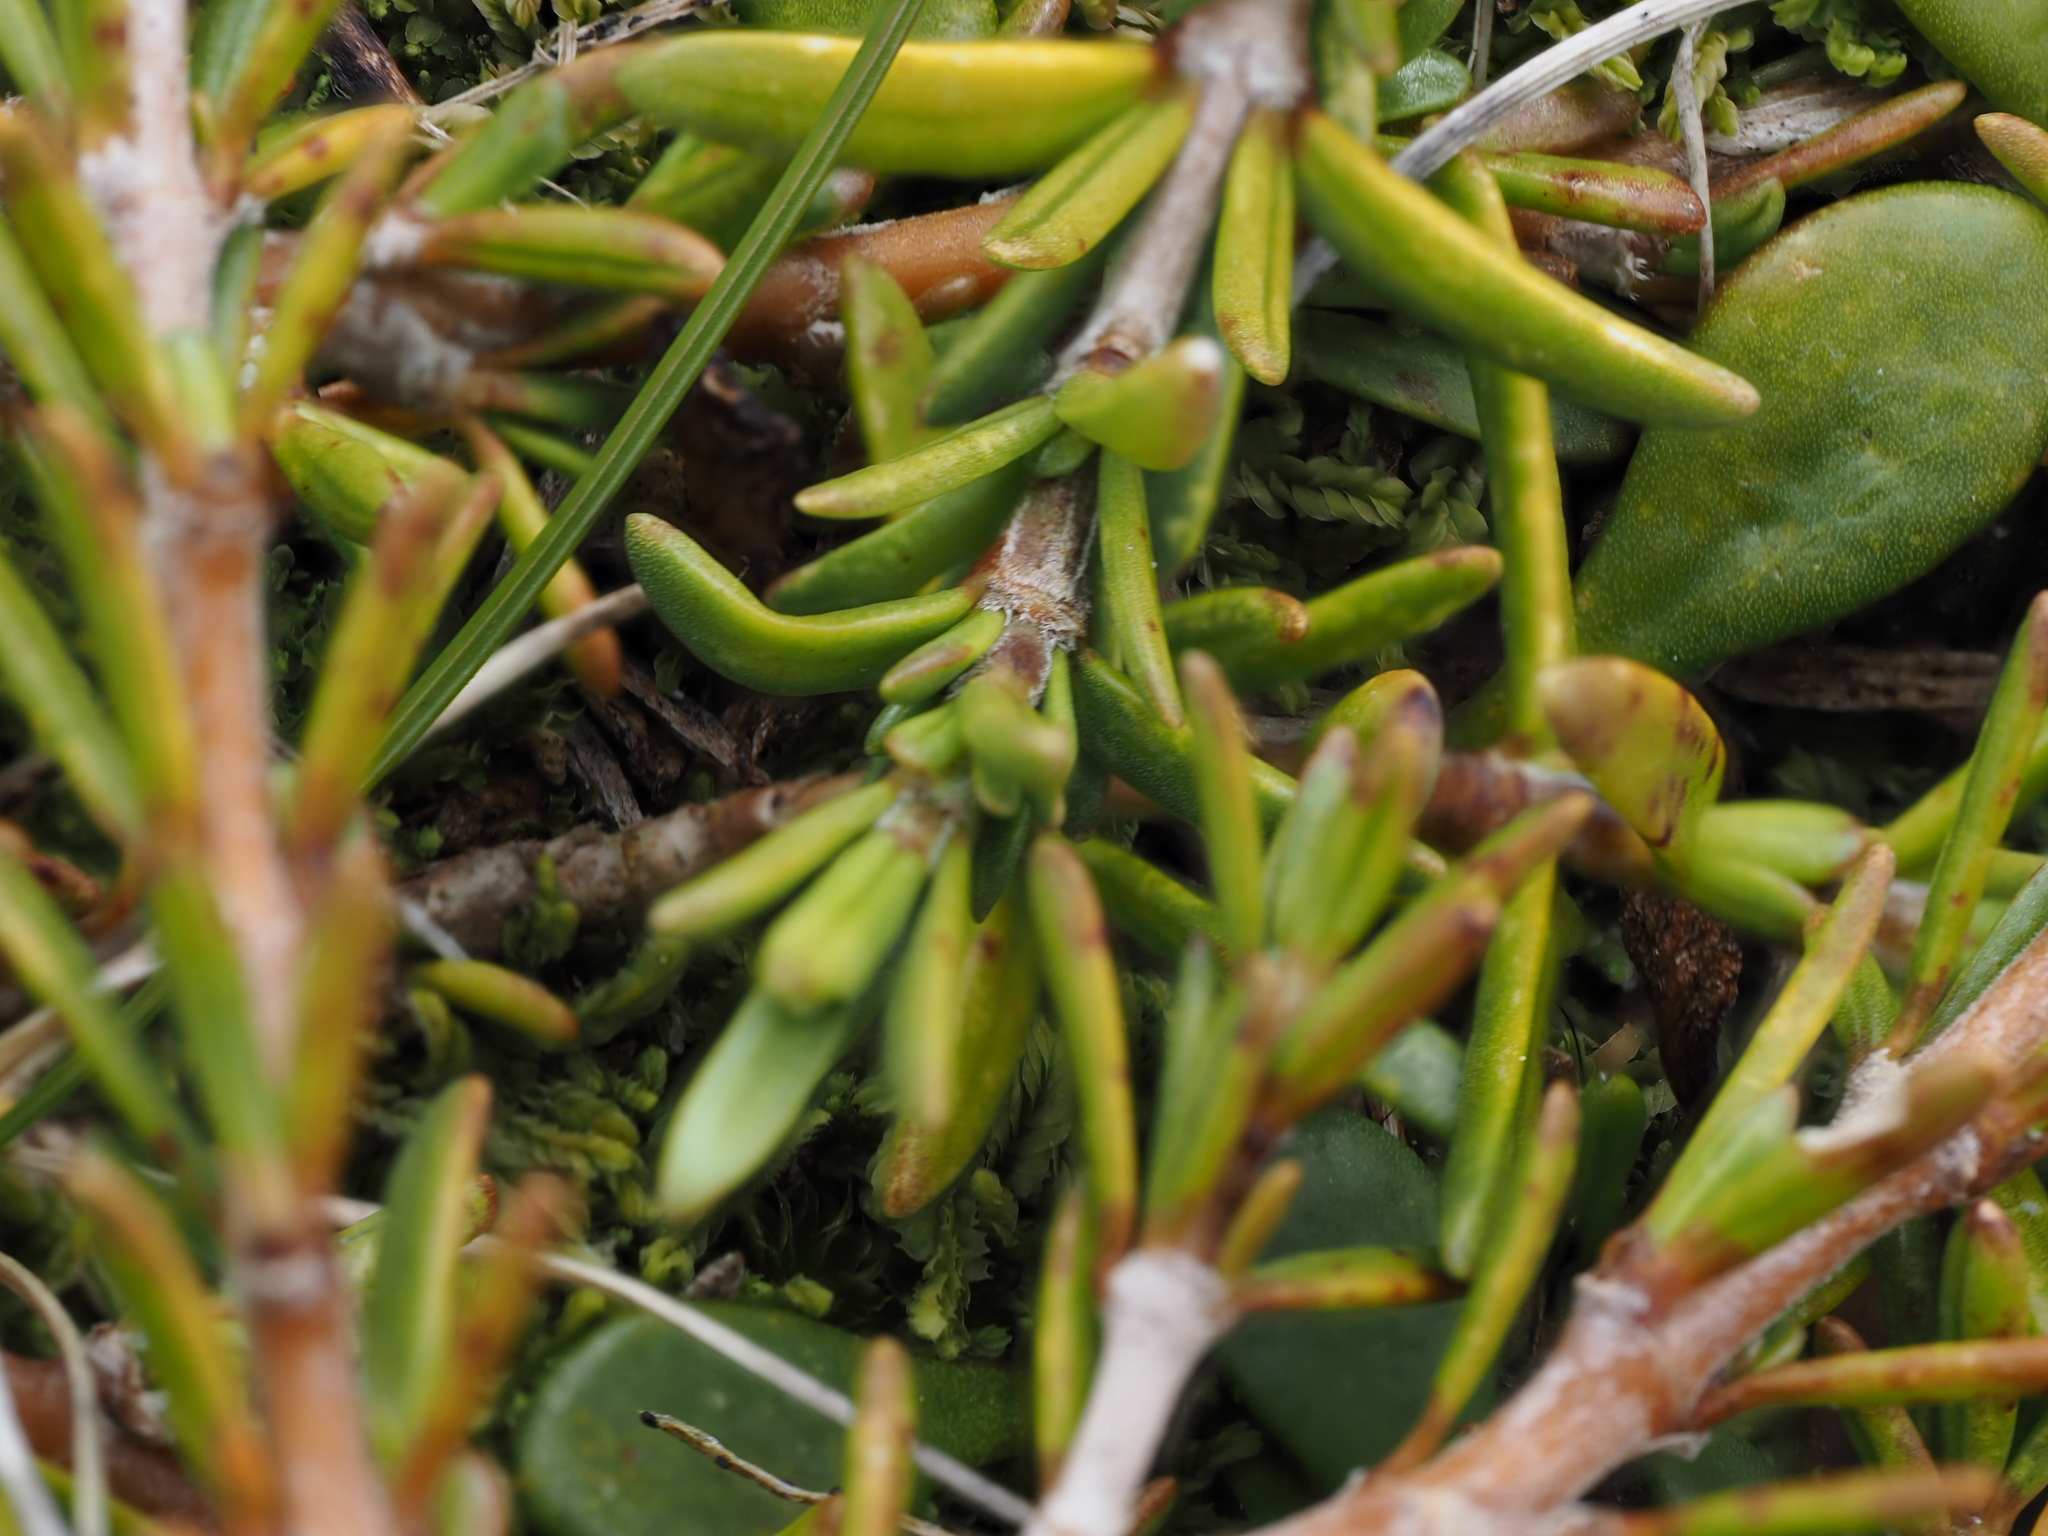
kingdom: Plantae
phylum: Tracheophyta
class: Magnoliopsida
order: Gentianales
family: Rubiaceae
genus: Coprosma
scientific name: Coprosma acerosa
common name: Sand coprosma
